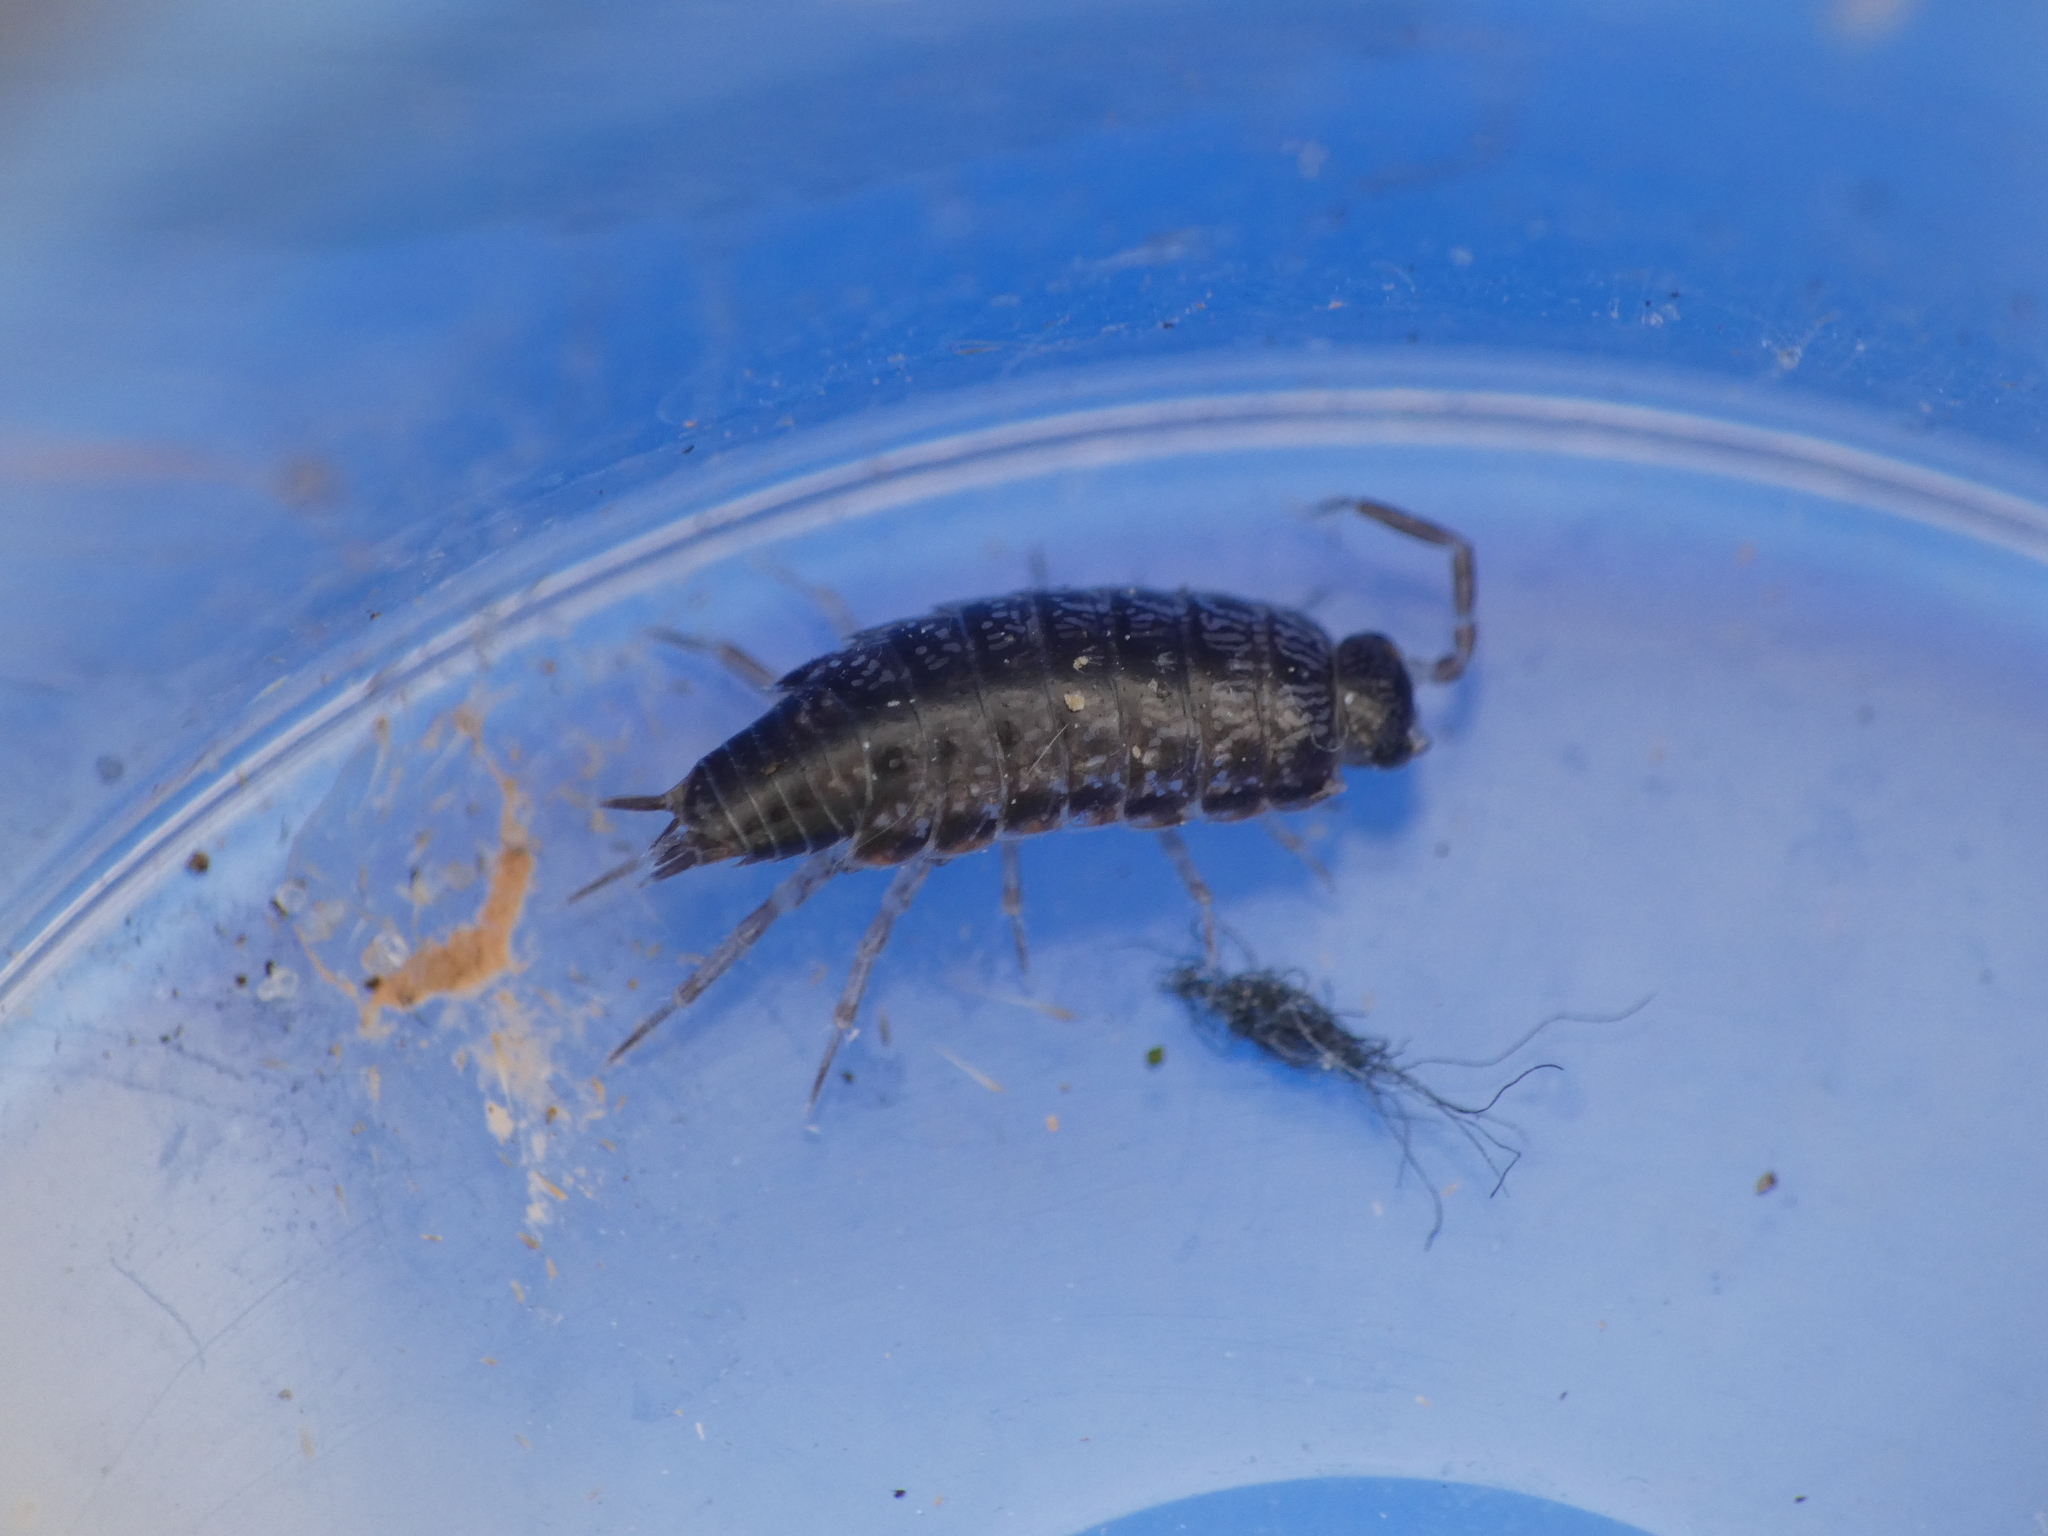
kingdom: Animalia
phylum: Arthropoda
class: Malacostraca
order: Isopoda
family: Philosciidae
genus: Chaetophiloscia
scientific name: Chaetophiloscia elongata
